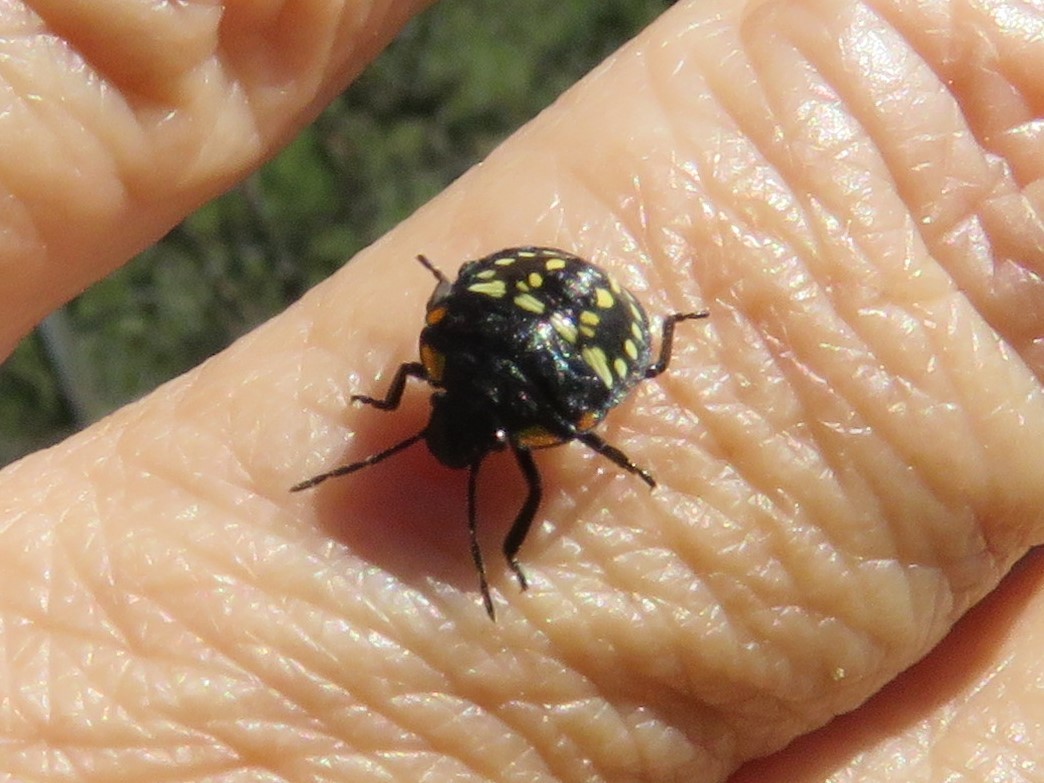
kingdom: Animalia
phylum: Arthropoda
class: Insecta
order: Hemiptera
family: Pentatomidae
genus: Nezara
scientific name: Nezara viridula
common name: Southern green stink bug
